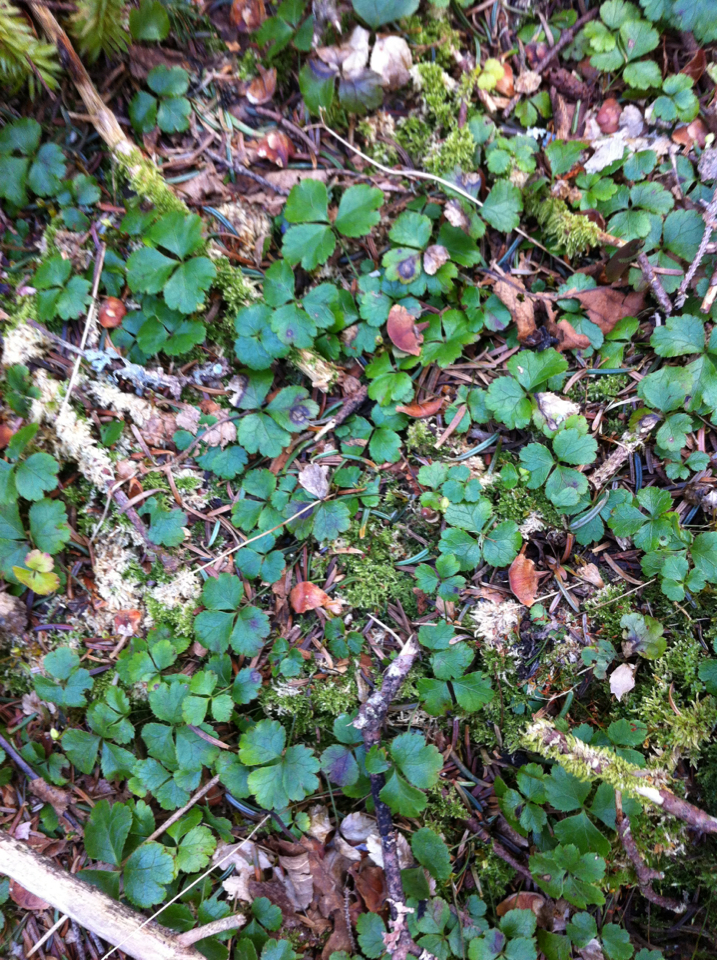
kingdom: Plantae
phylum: Tracheophyta
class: Magnoliopsida
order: Ranunculales
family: Ranunculaceae
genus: Coptis
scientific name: Coptis trifolia
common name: Canker-root
